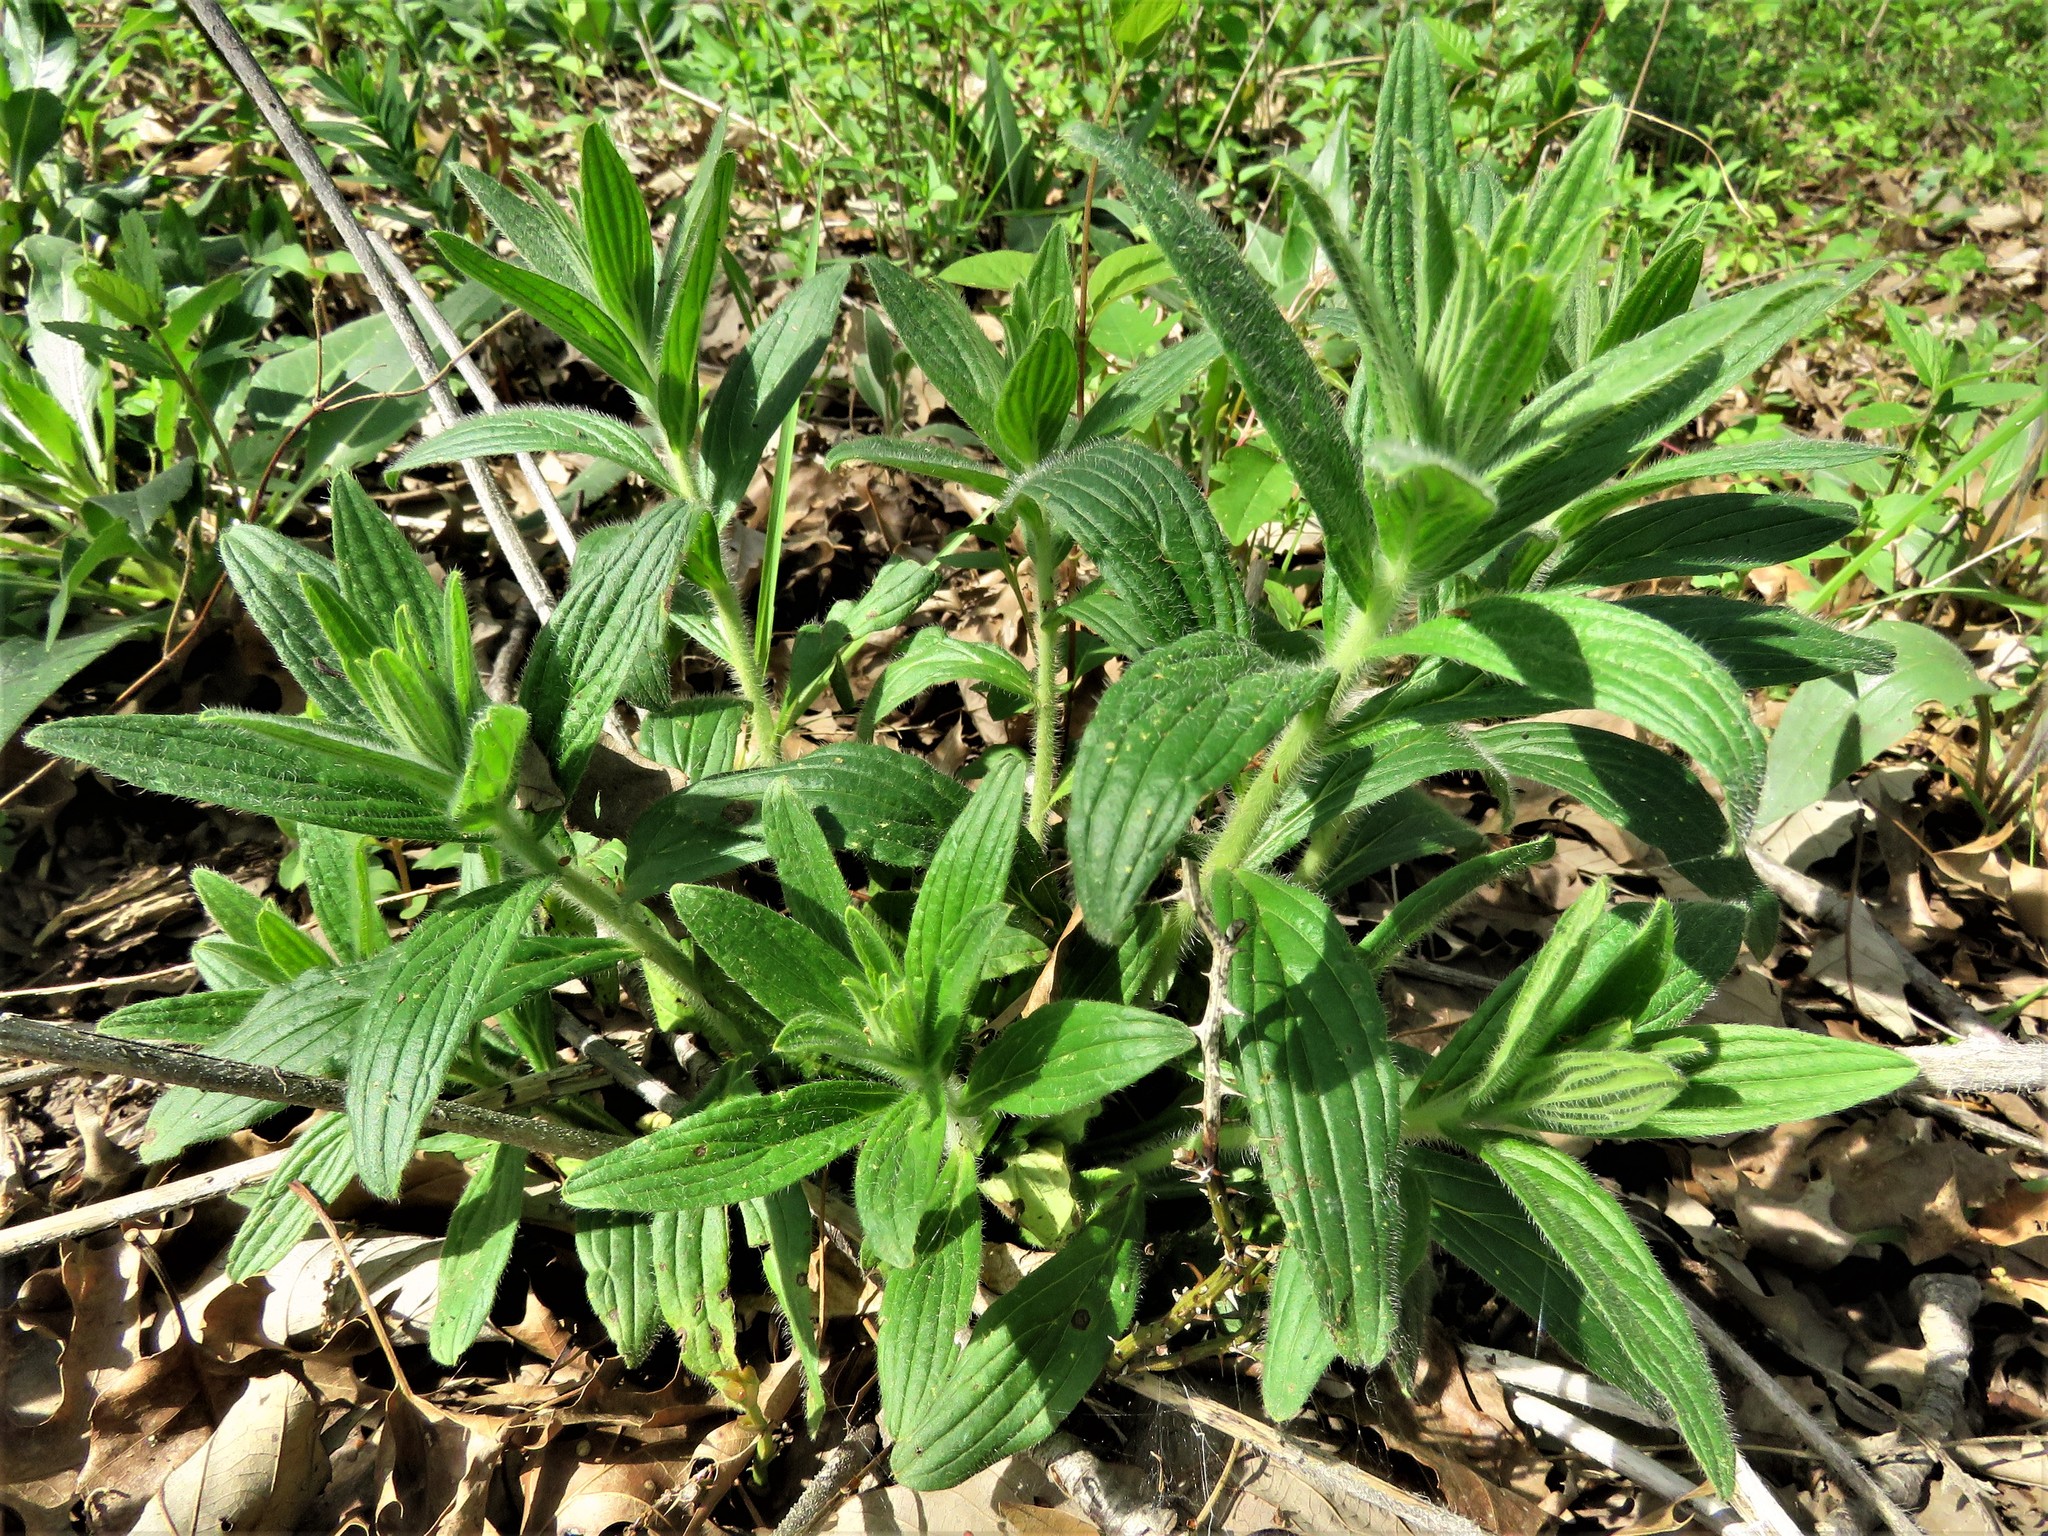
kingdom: Plantae
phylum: Tracheophyta
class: Magnoliopsida
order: Boraginales
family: Boraginaceae
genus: Lithospermum
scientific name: Lithospermum caroliniense
